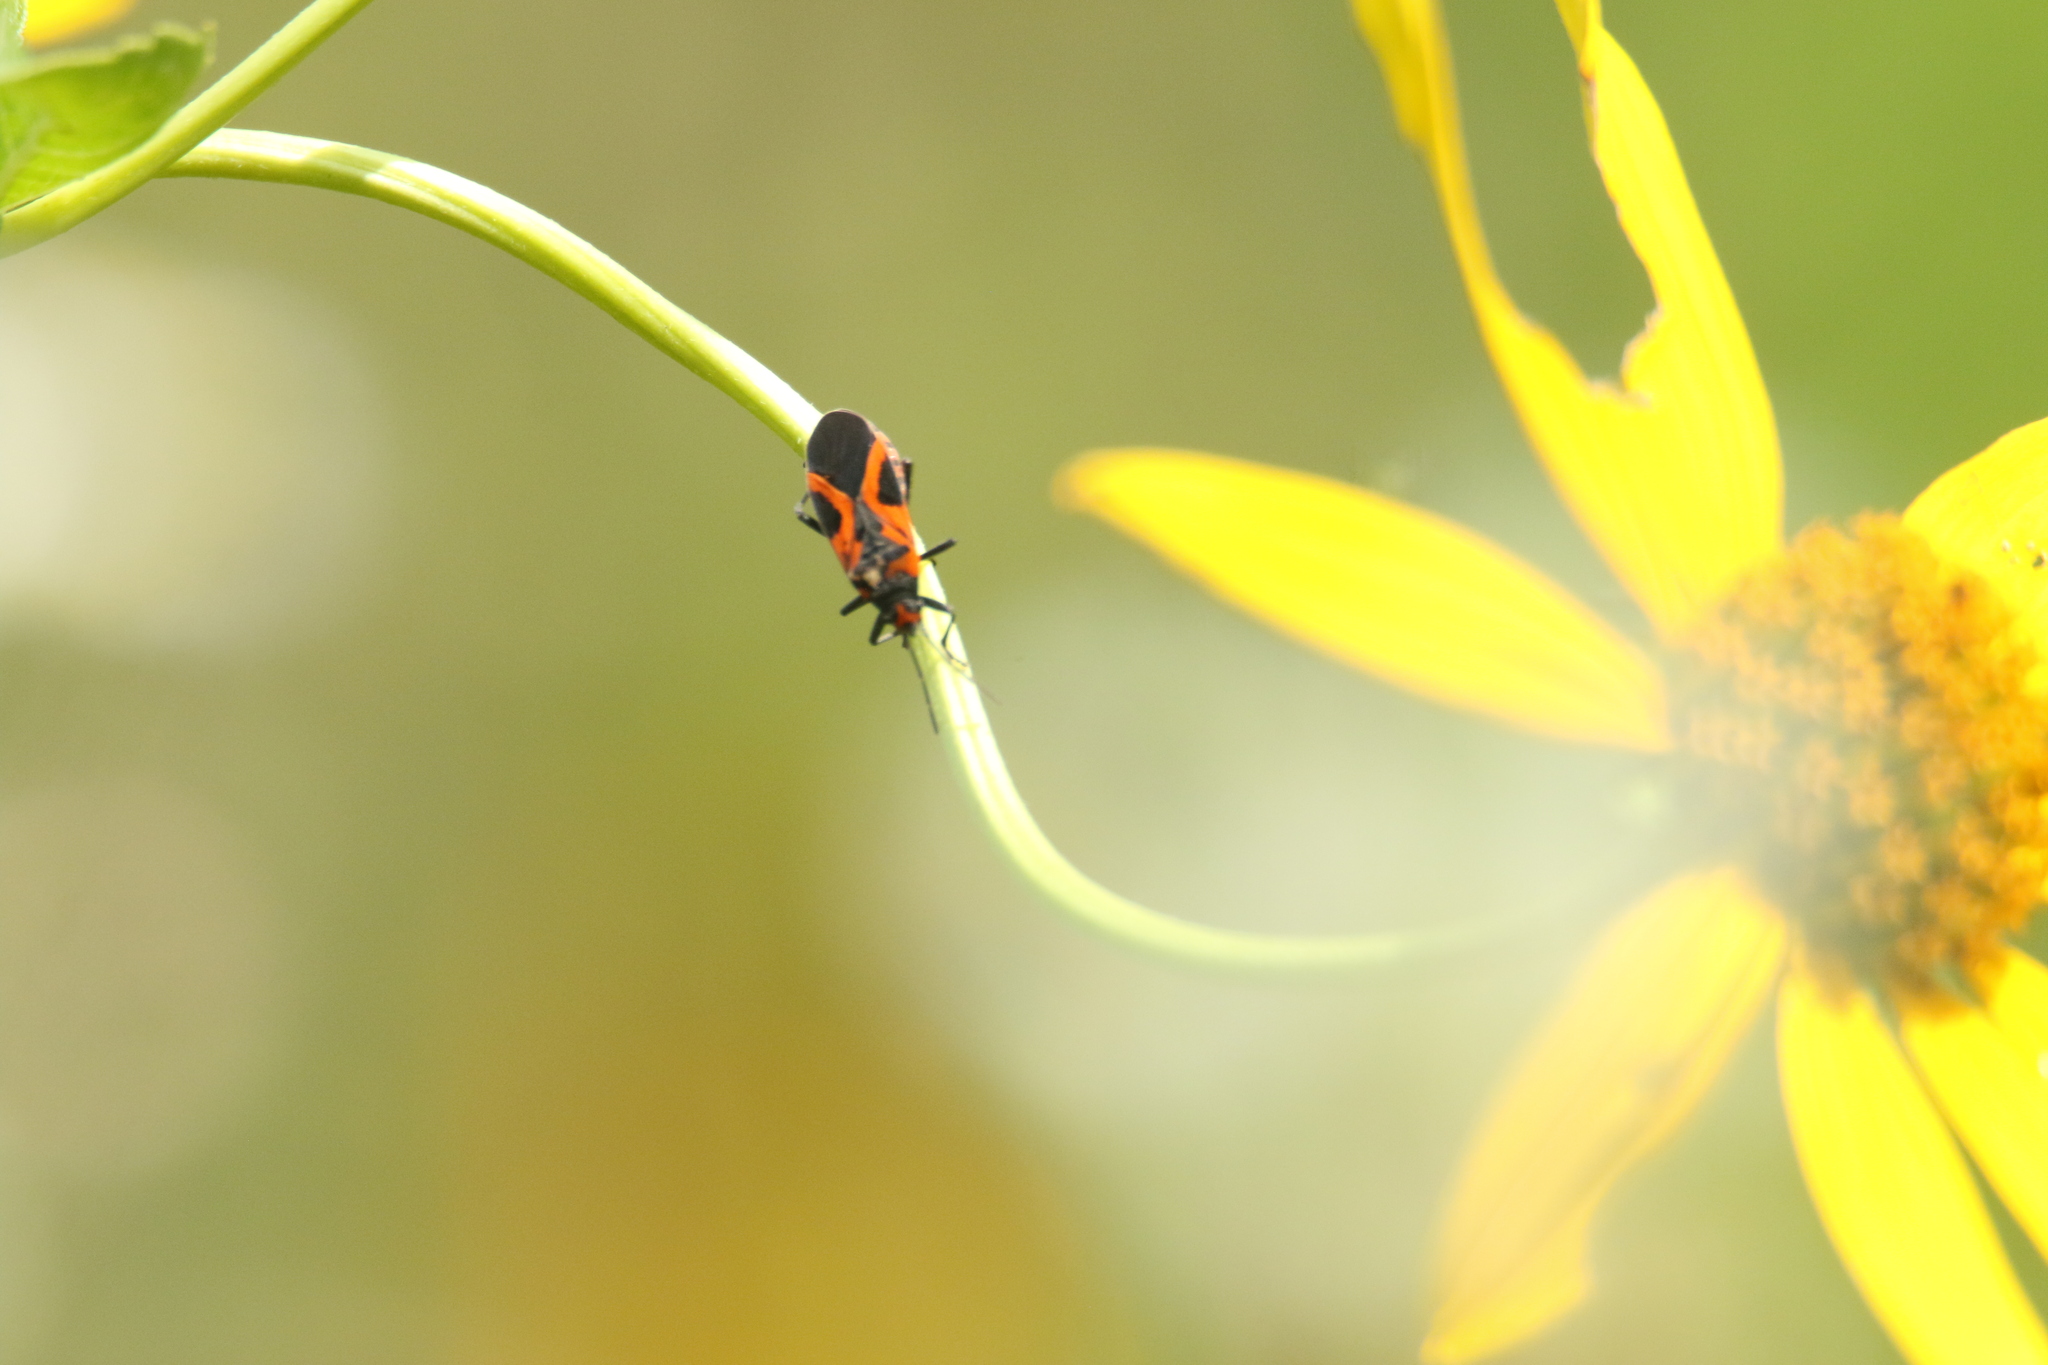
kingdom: Animalia
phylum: Arthropoda
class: Insecta
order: Hemiptera
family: Lygaeidae
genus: Lygaeus
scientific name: Lygaeus turcicus
